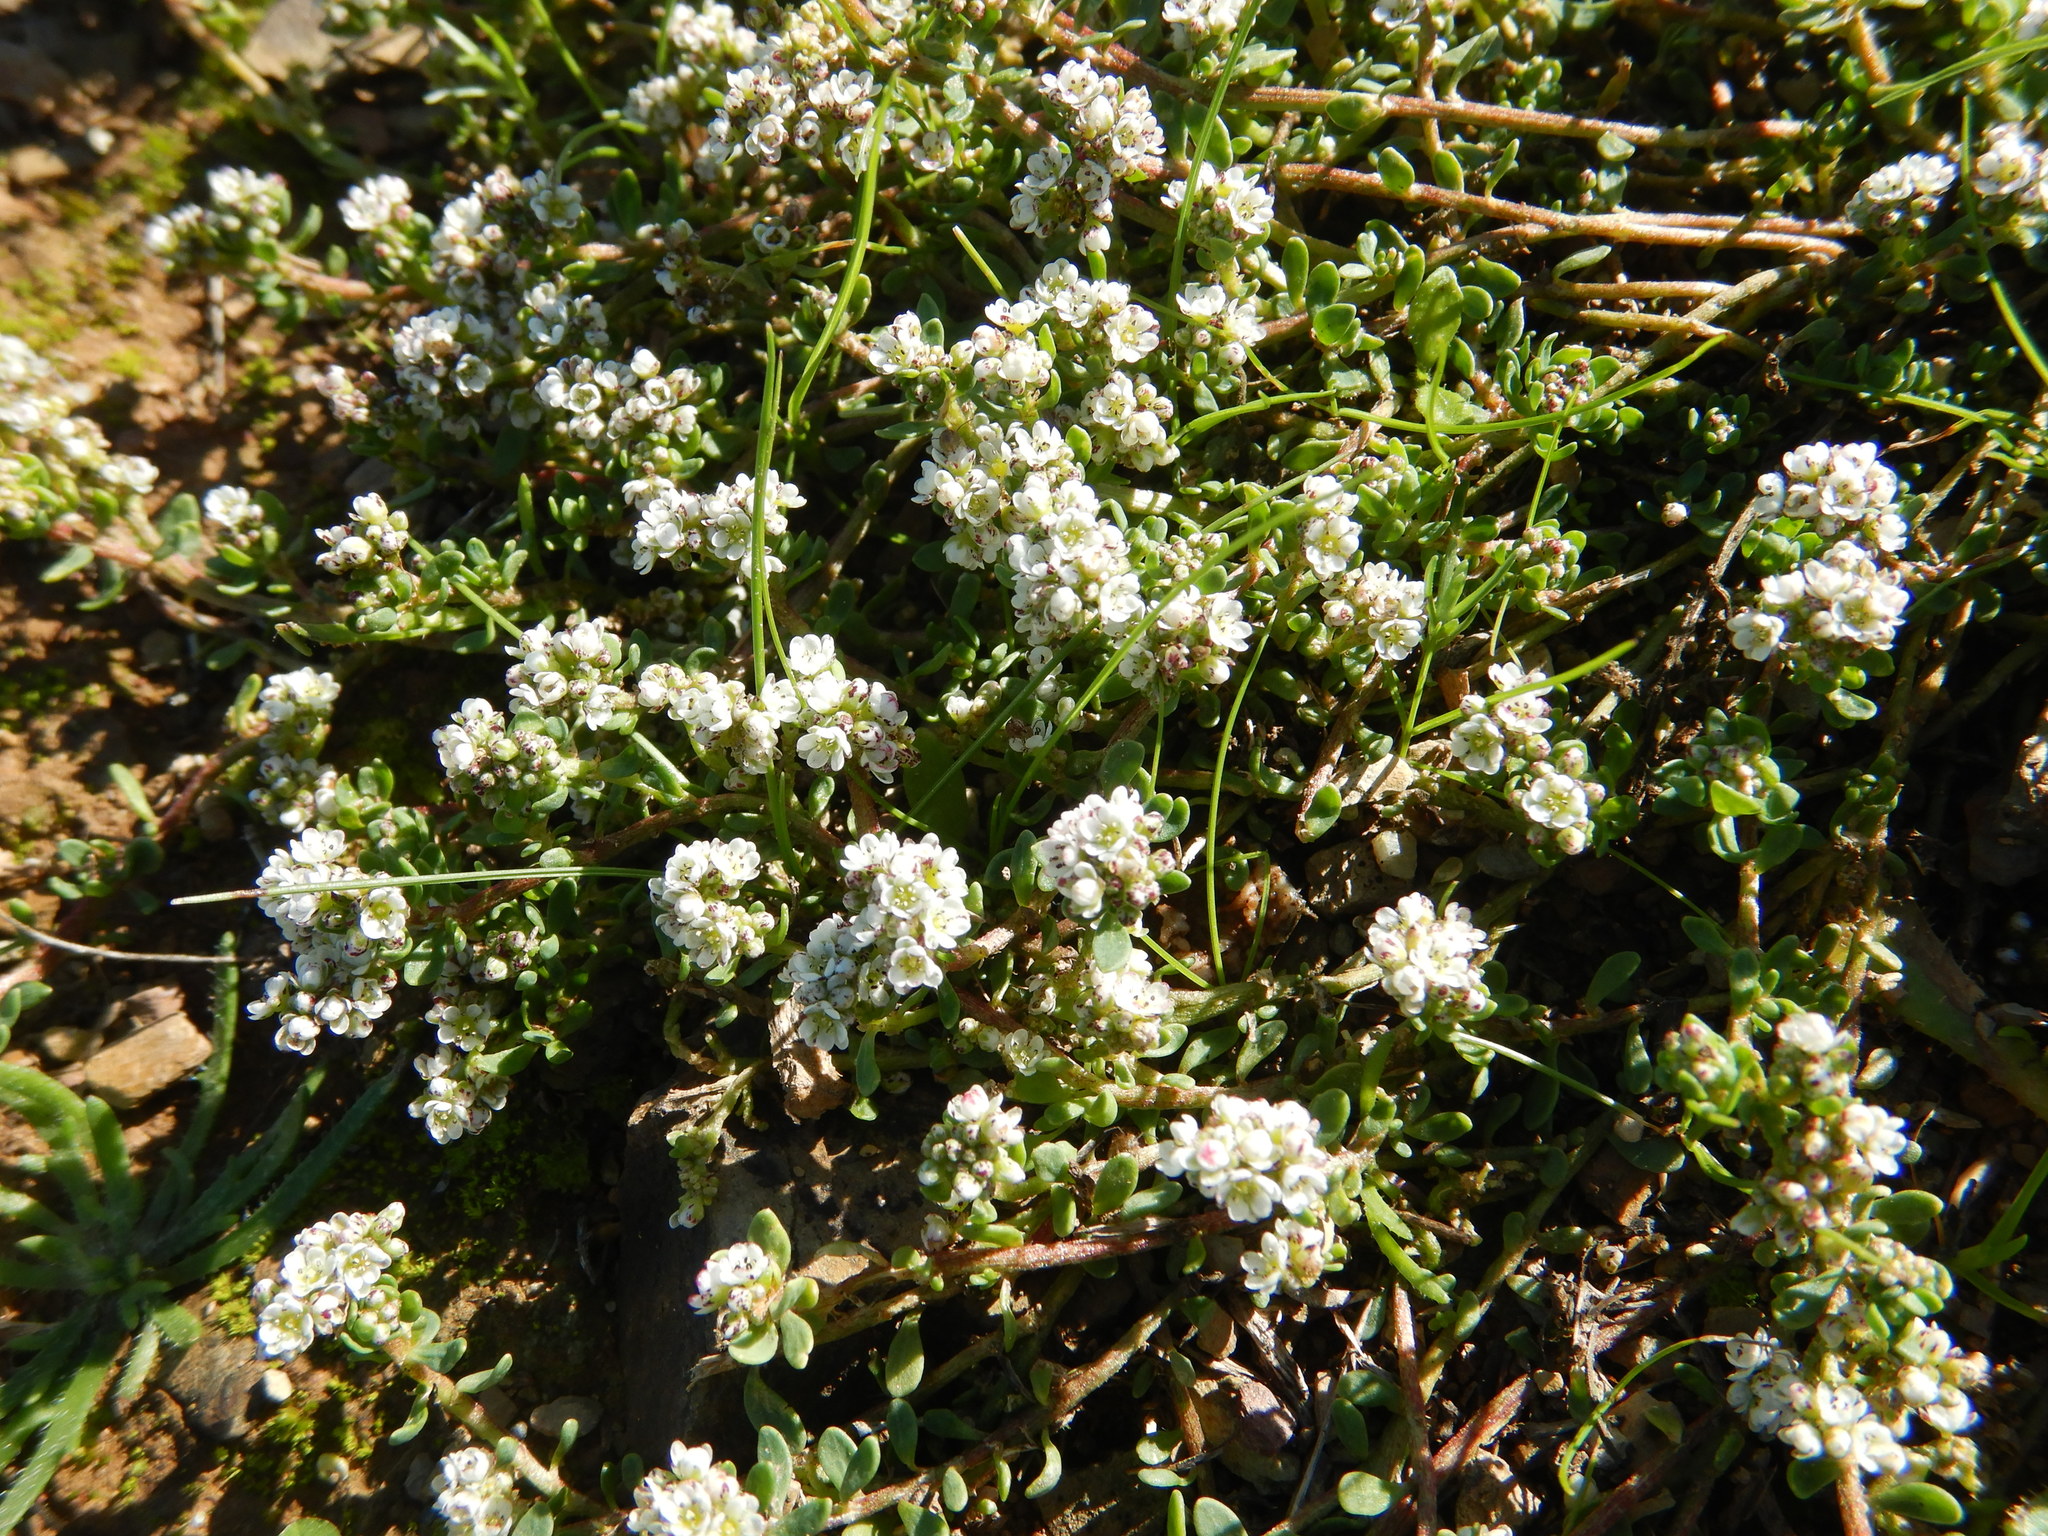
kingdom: Plantae
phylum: Tracheophyta
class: Magnoliopsida
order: Caryophyllales
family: Caryophyllaceae
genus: Corrigiola
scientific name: Corrigiola litoralis
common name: Strapwort
